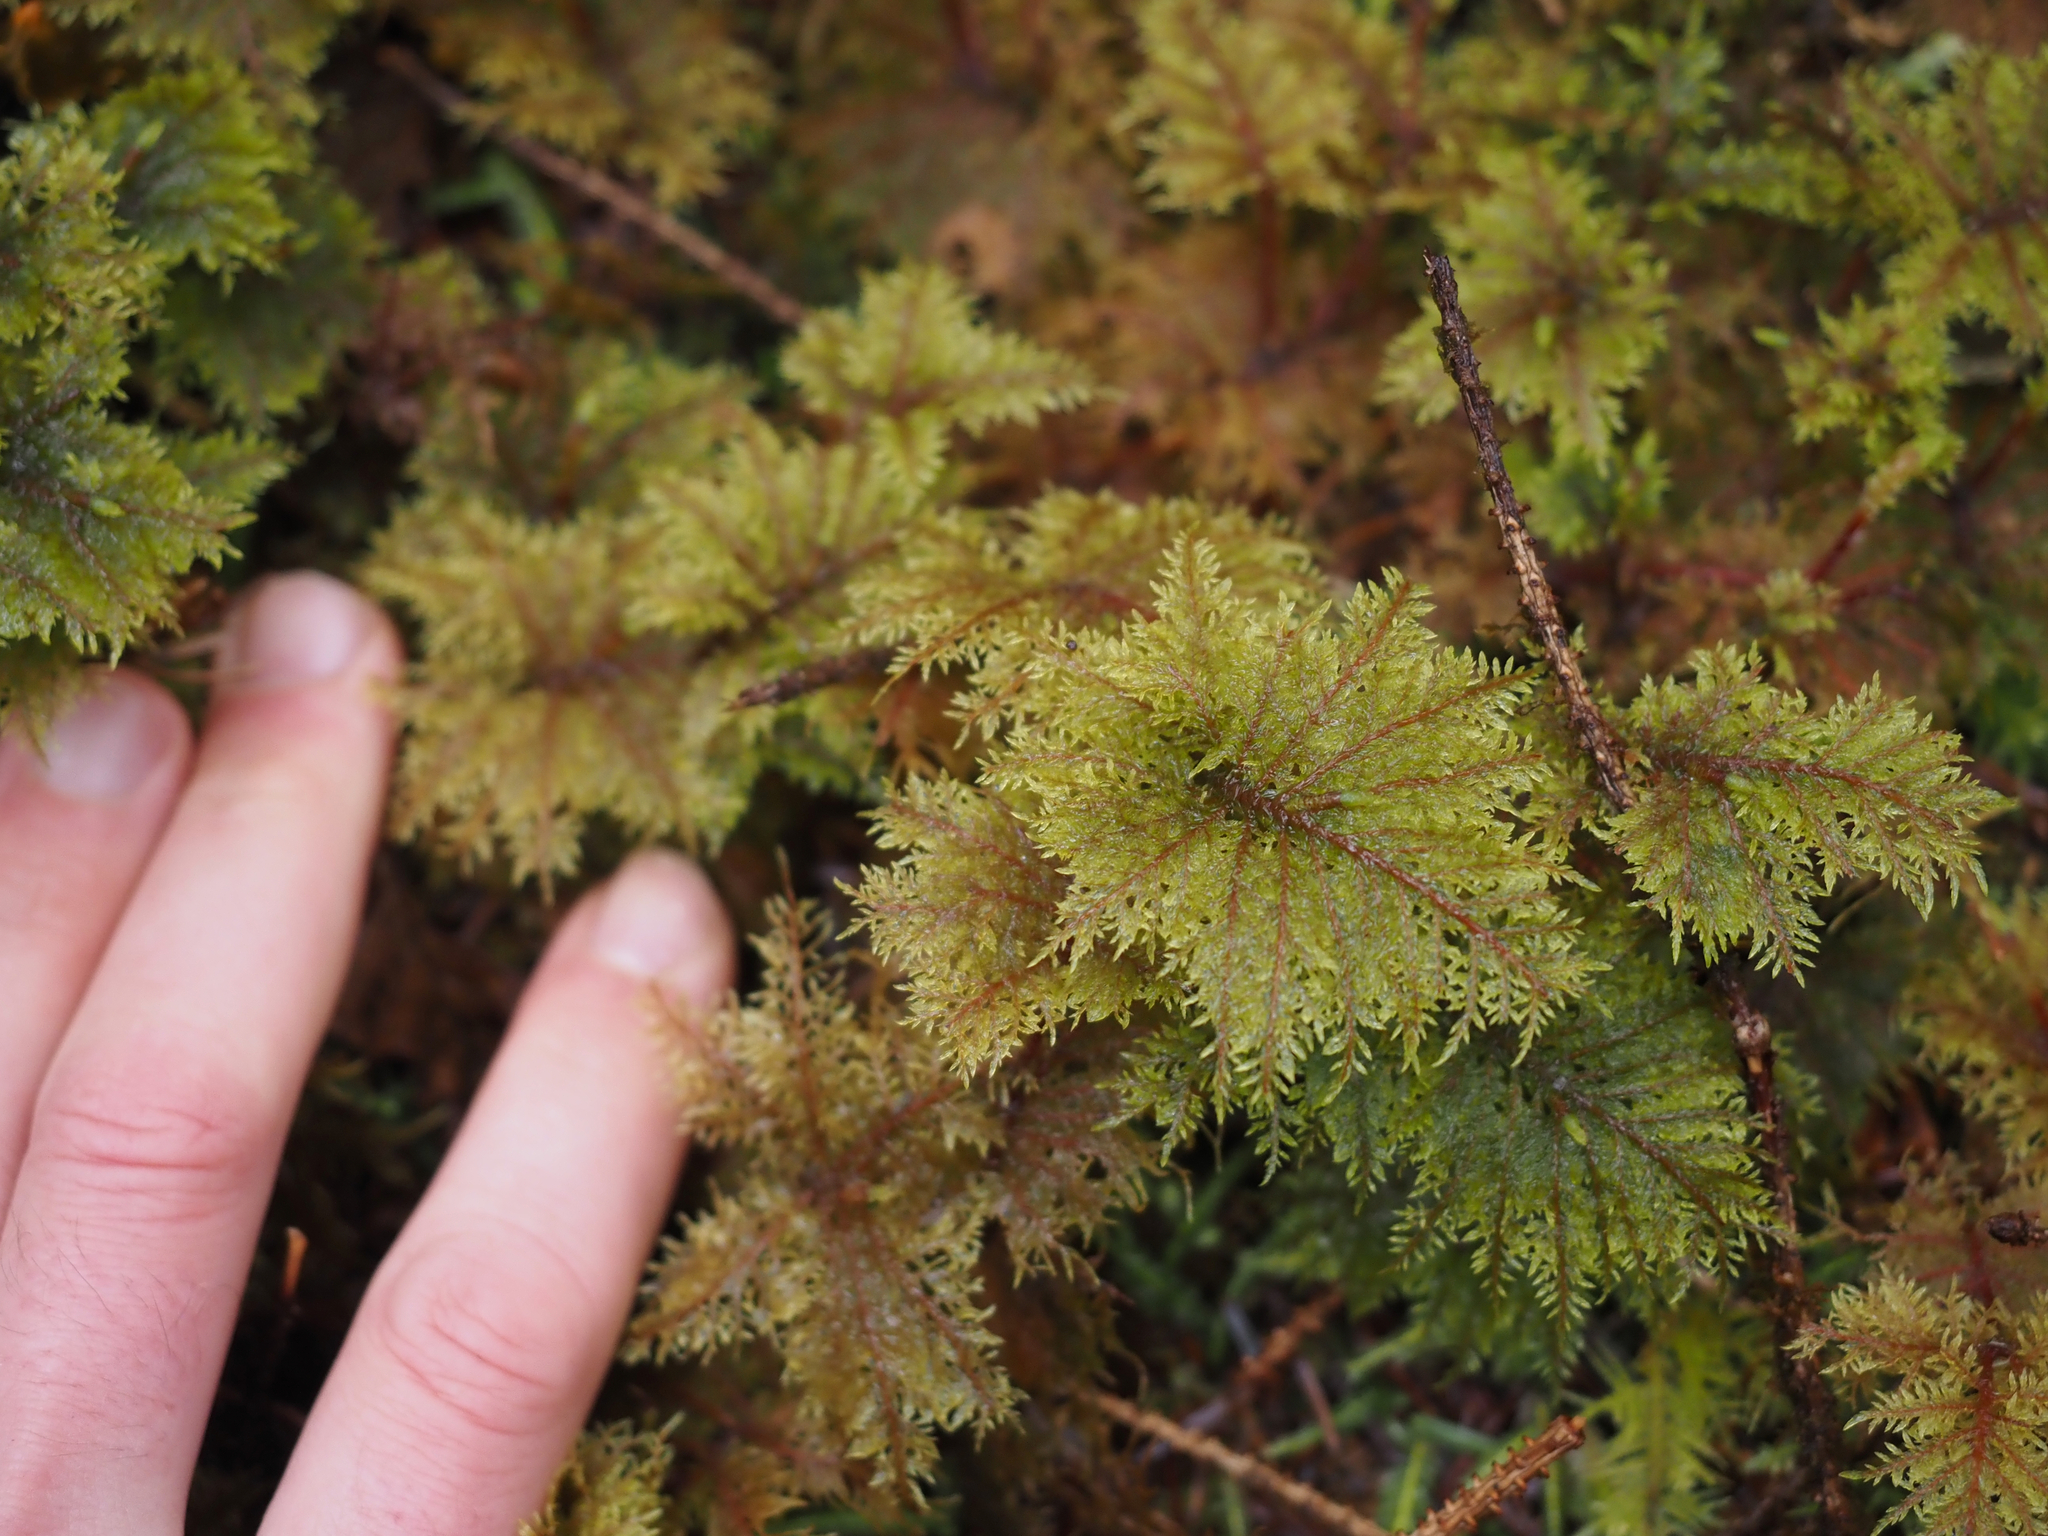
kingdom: Plantae
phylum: Bryophyta
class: Bryopsida
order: Hypnales
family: Hylocomiaceae
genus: Hylocomium
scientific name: Hylocomium splendens
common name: Stairstep moss
